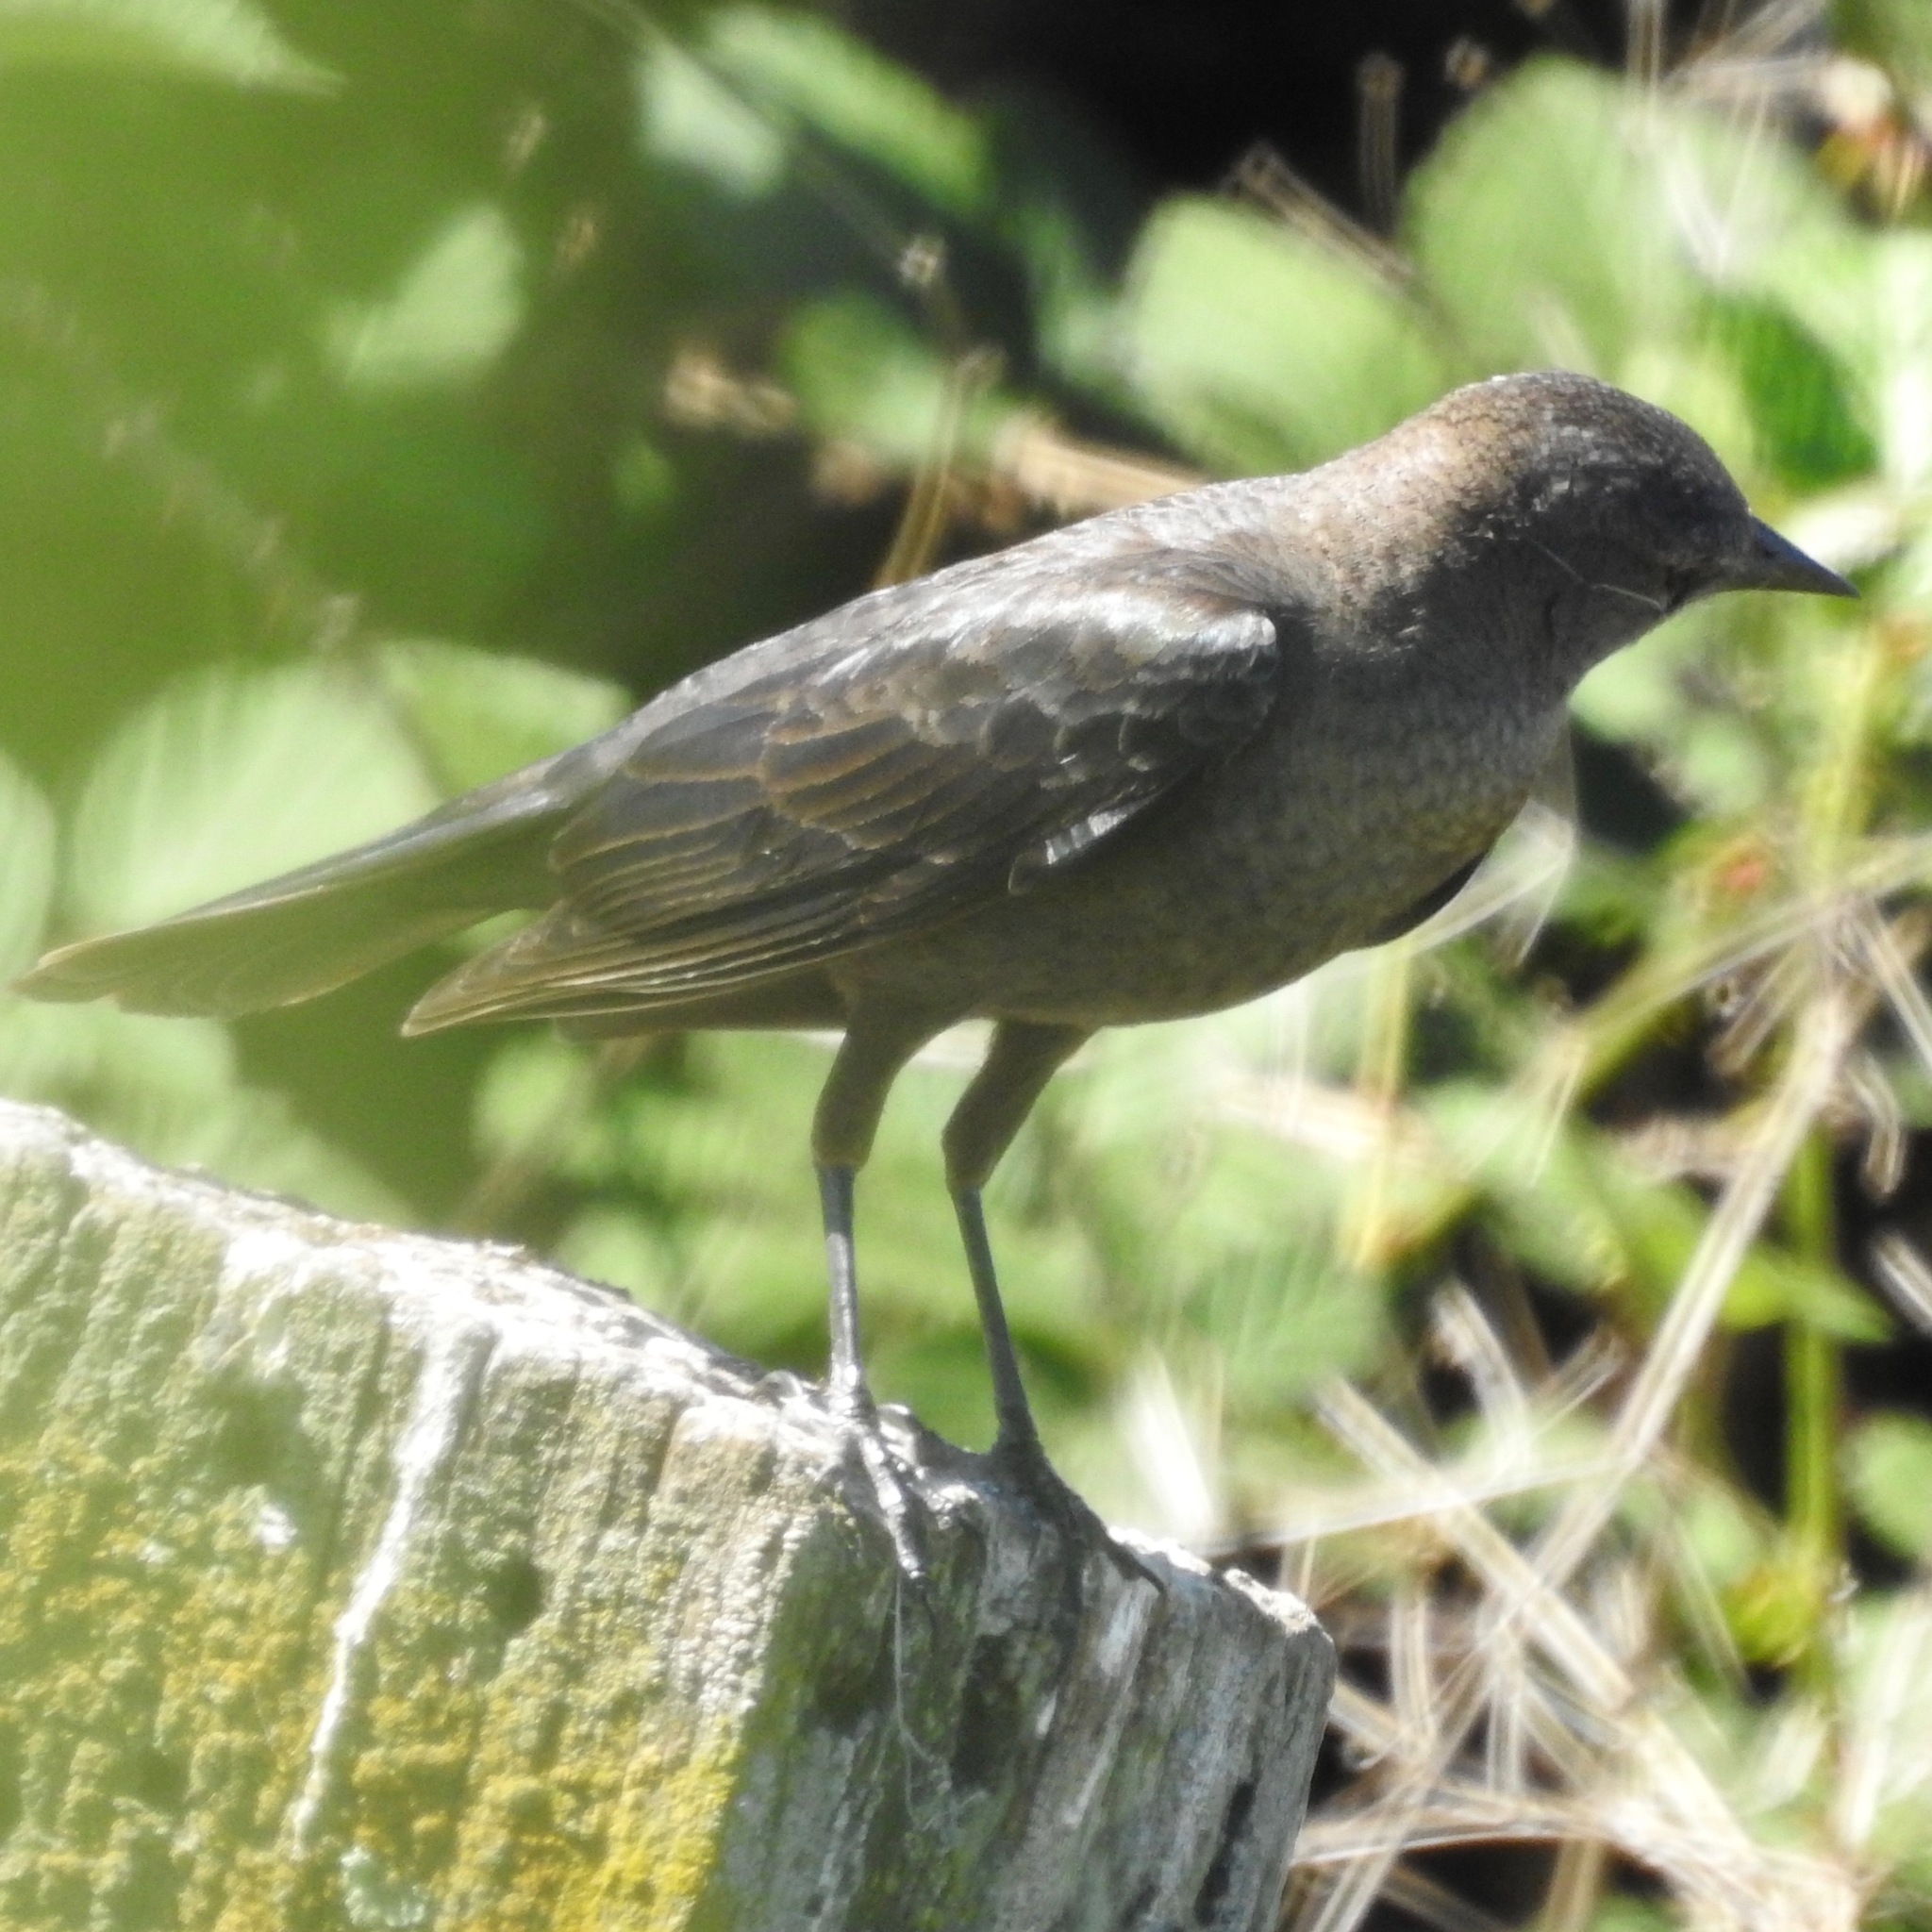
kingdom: Animalia
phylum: Chordata
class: Aves
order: Passeriformes
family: Icteridae
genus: Euphagus
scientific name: Euphagus cyanocephalus
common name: Brewer's blackbird
